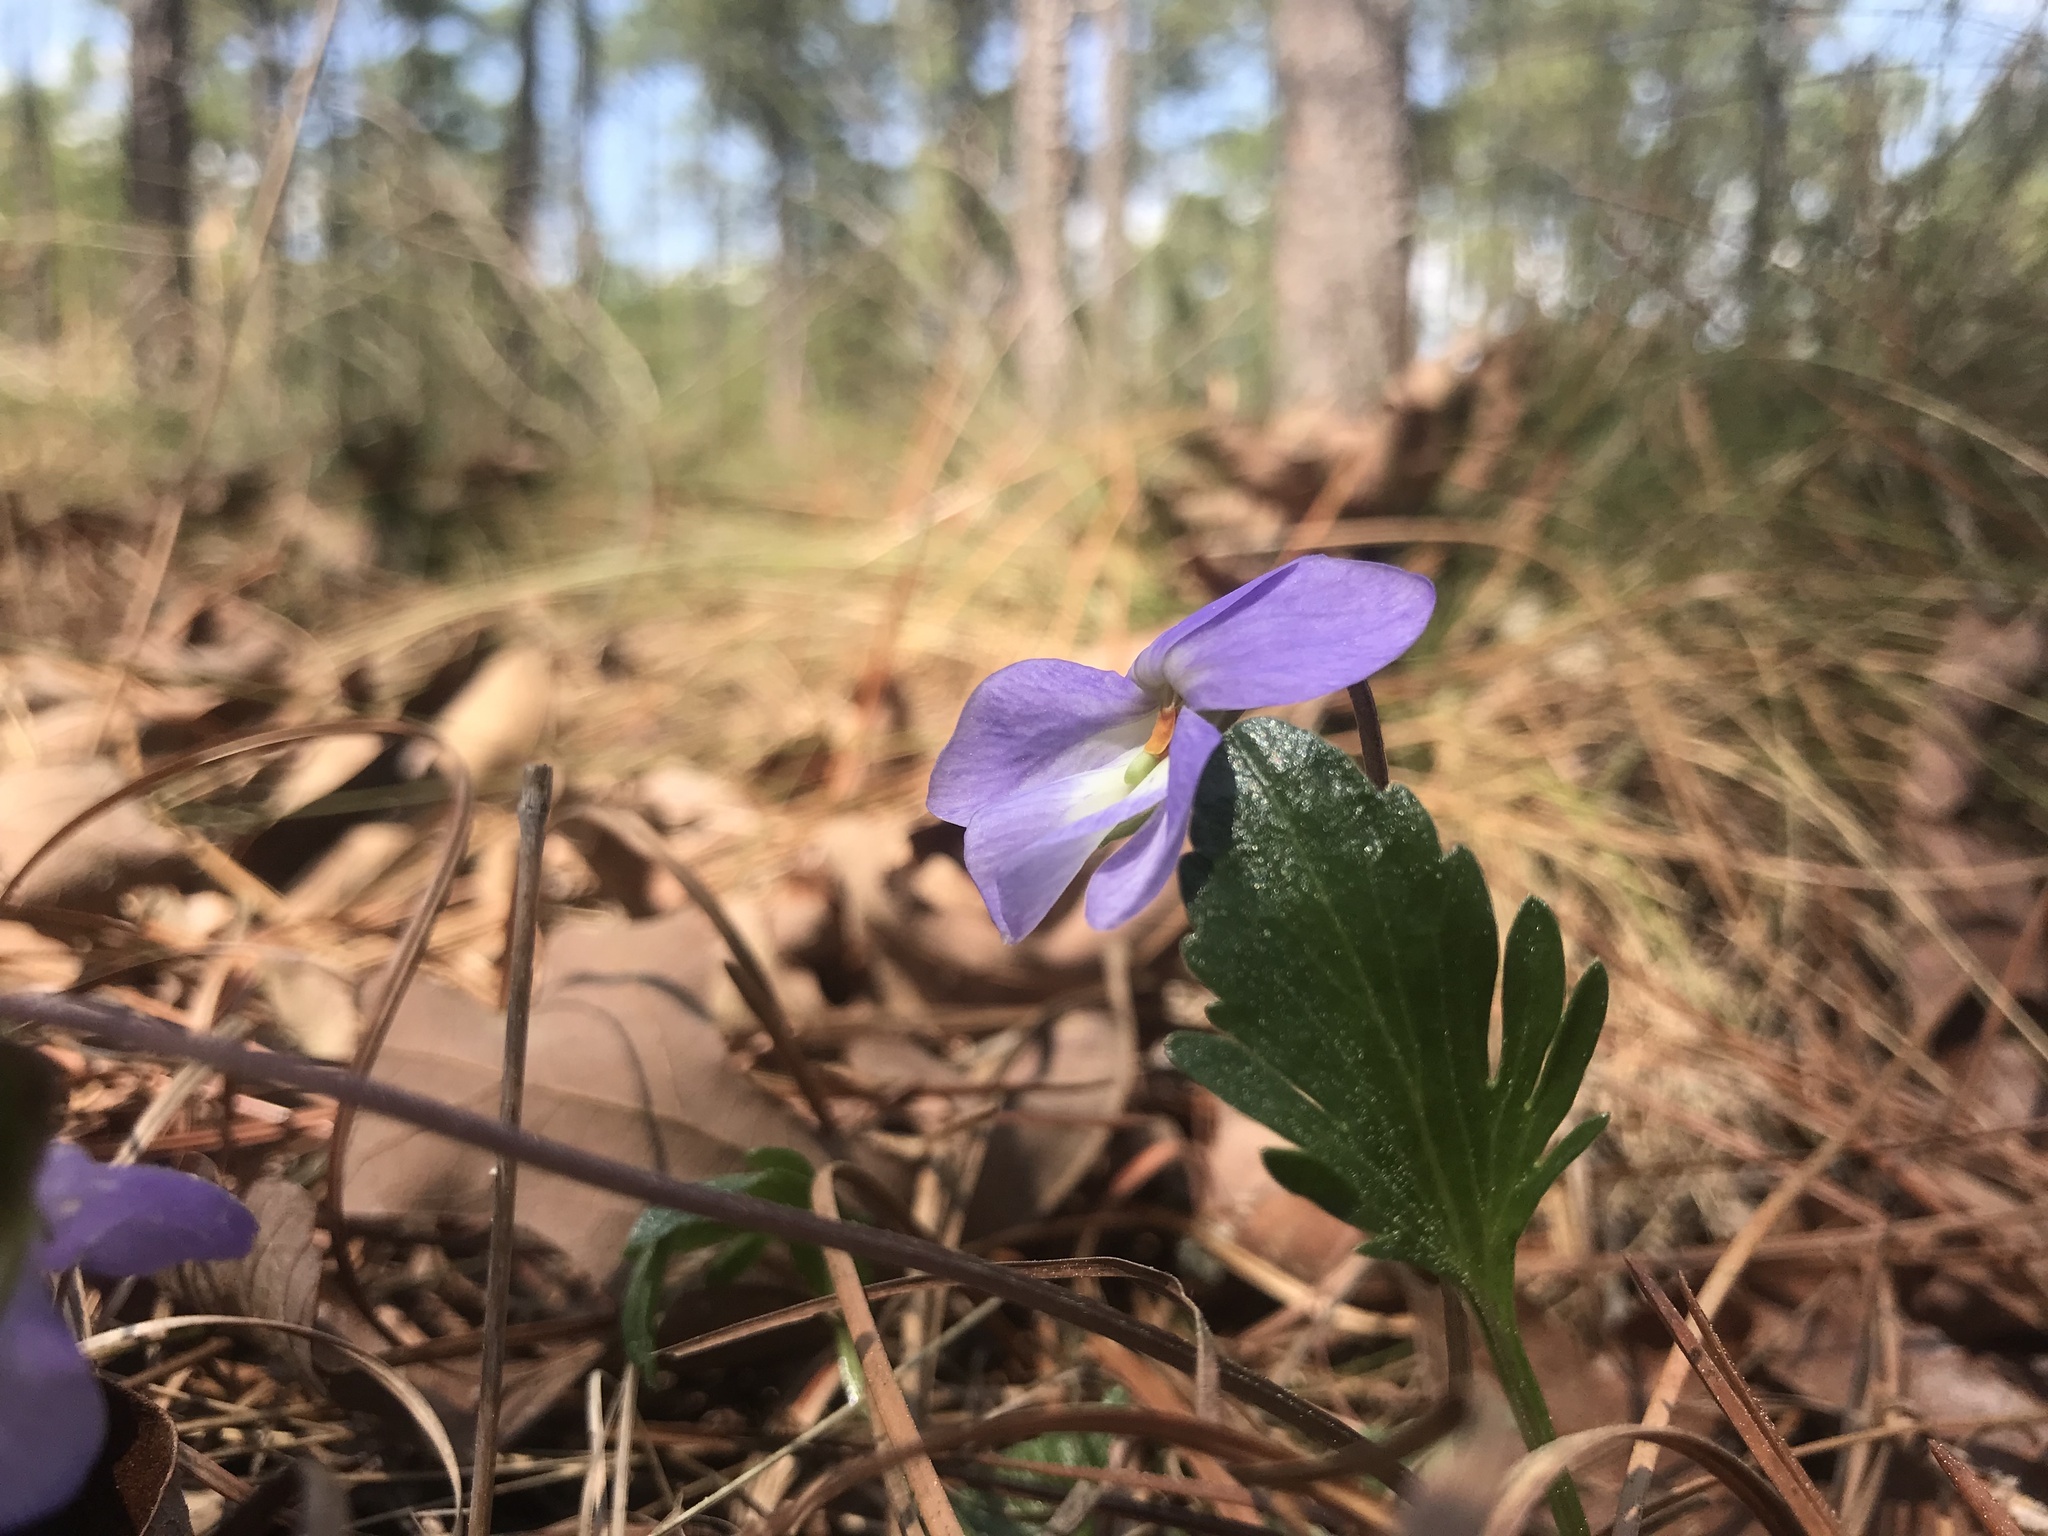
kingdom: Plantae
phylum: Tracheophyta
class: Magnoliopsida
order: Malpighiales
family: Violaceae
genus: Viola
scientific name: Viola pedata
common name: Pansy violet
